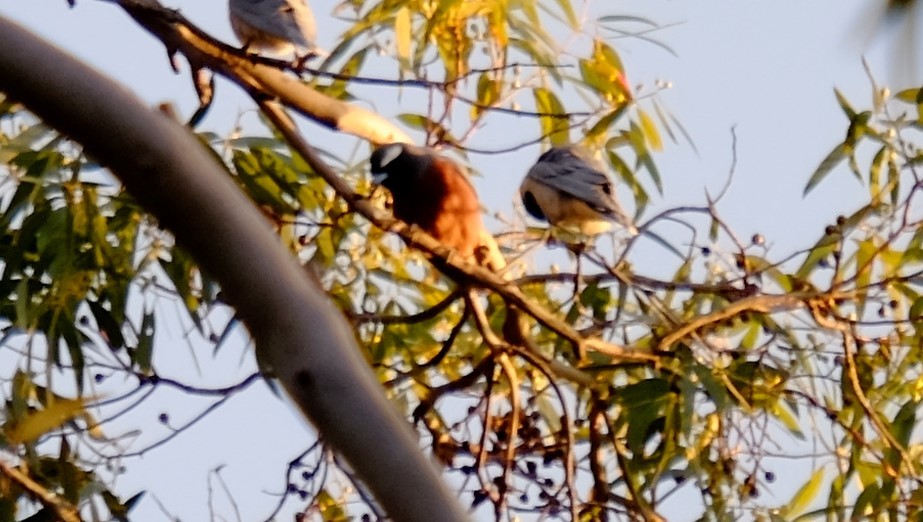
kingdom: Animalia
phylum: Chordata
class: Aves
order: Passeriformes
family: Artamidae
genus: Artamus
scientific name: Artamus superciliosus
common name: White-browed woodswallow
